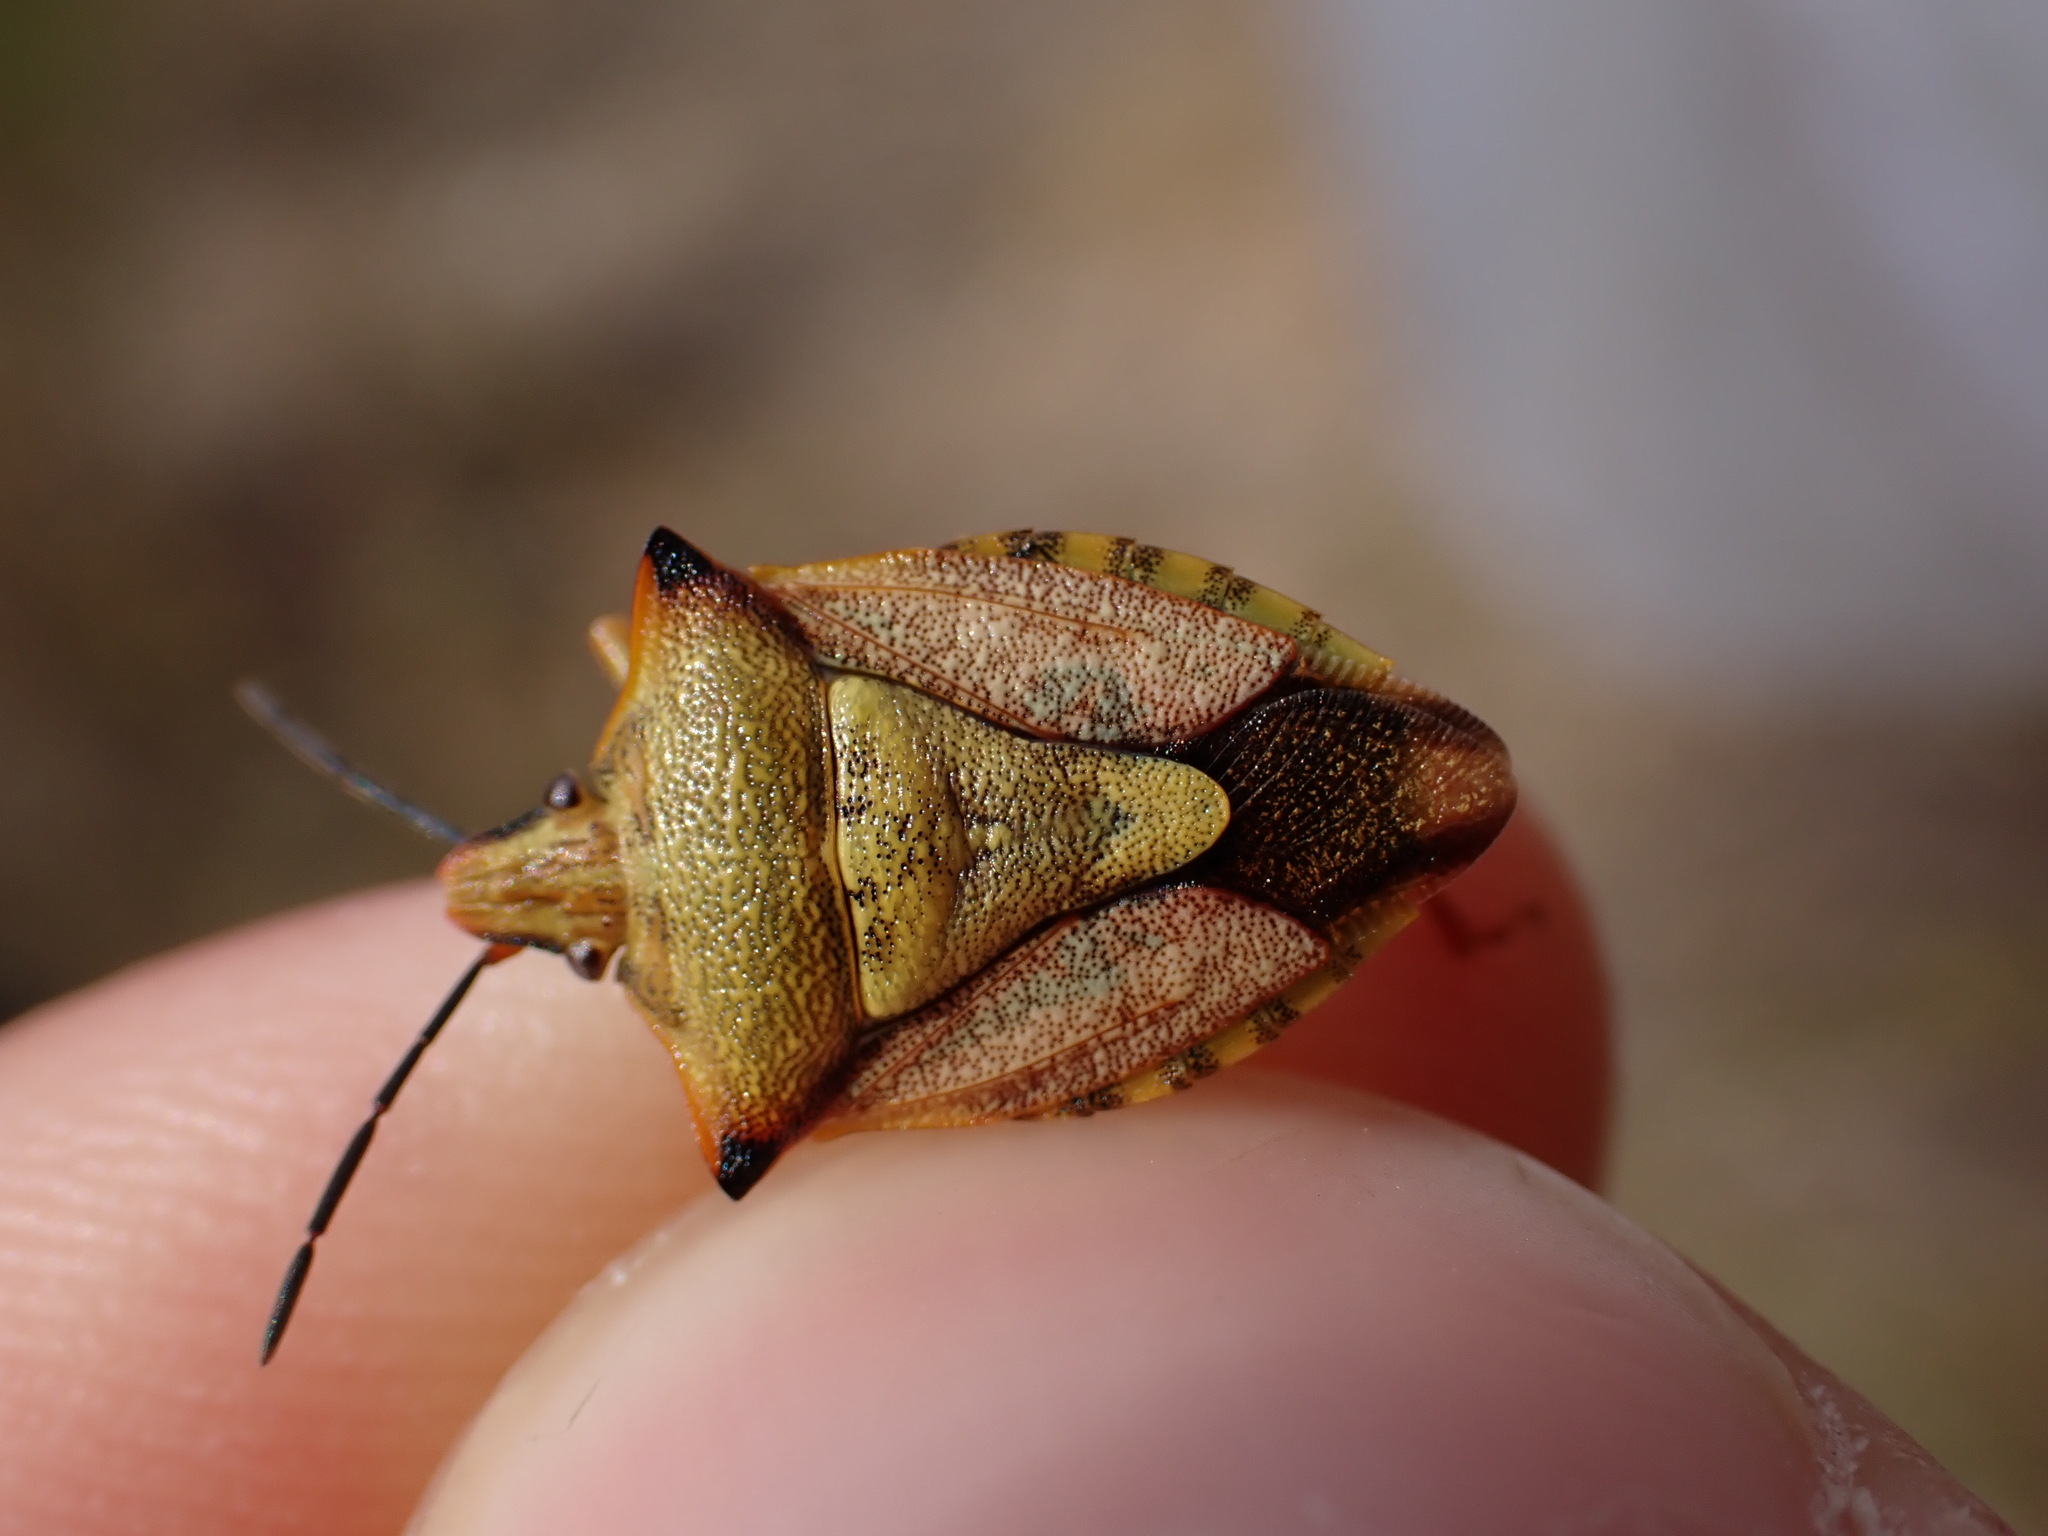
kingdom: Animalia
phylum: Arthropoda
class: Insecta
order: Hemiptera
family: Pentatomidae
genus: Carpocoris
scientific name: Carpocoris mediterraneus
